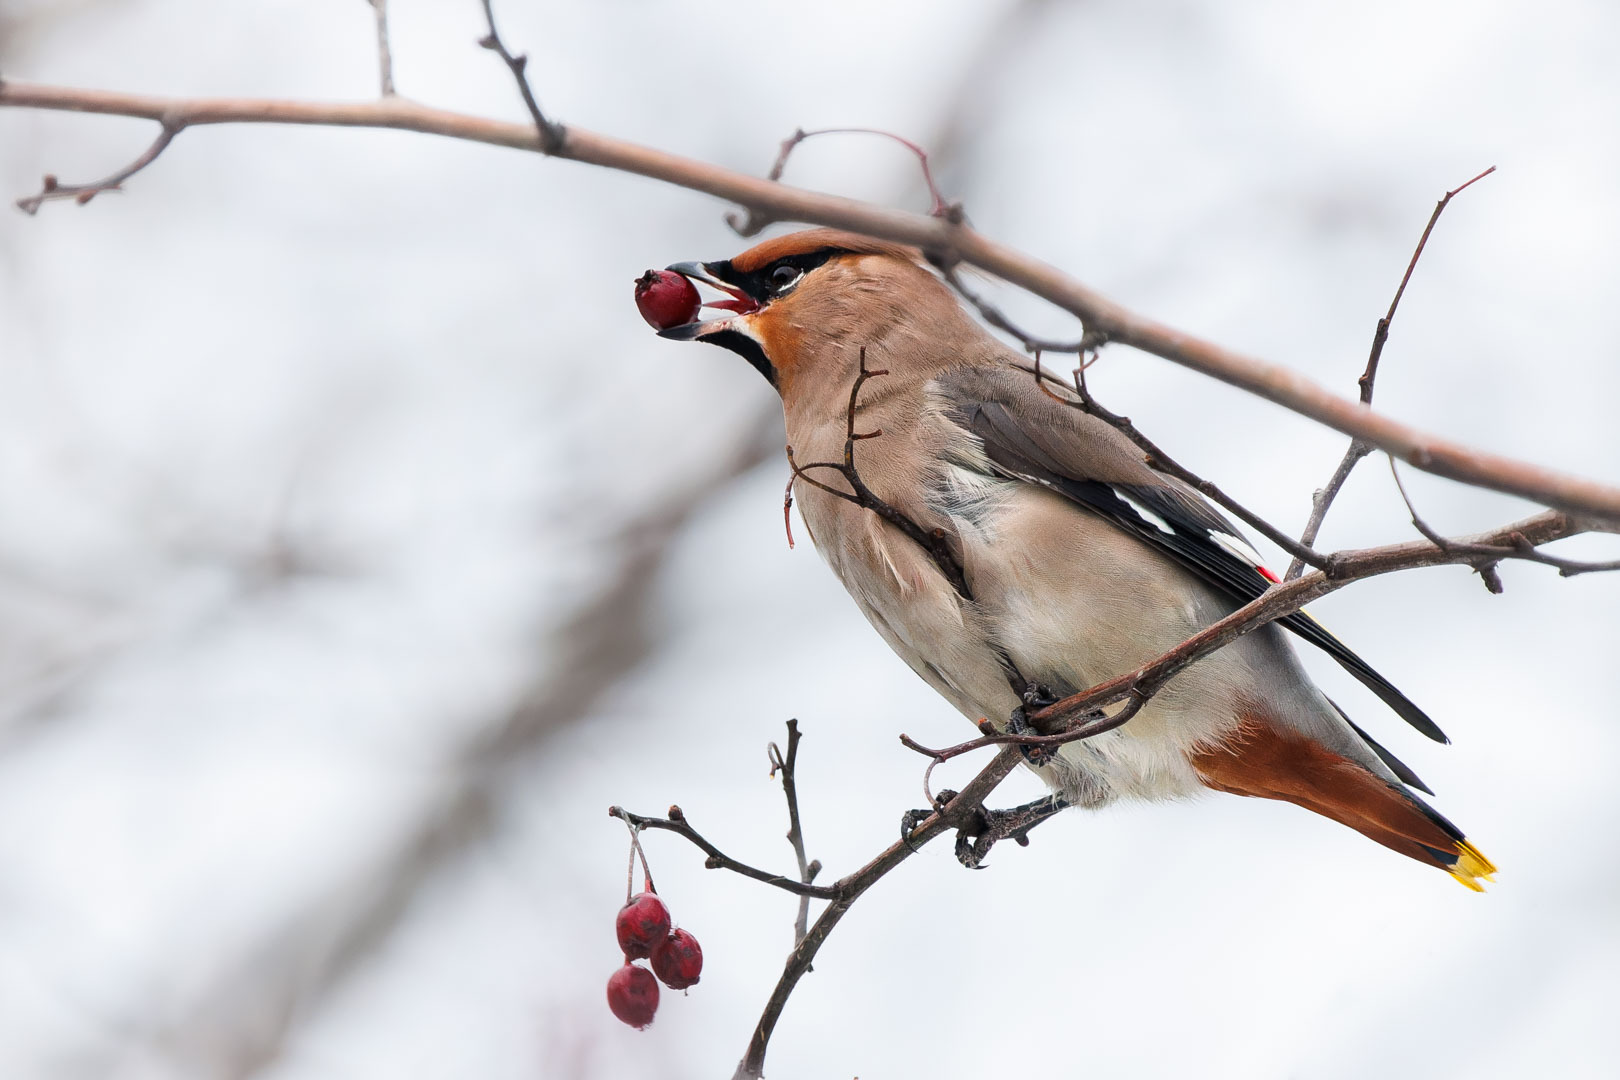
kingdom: Animalia
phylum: Chordata
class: Aves
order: Passeriformes
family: Bombycillidae
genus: Bombycilla
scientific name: Bombycilla garrulus
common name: Bohemian waxwing
